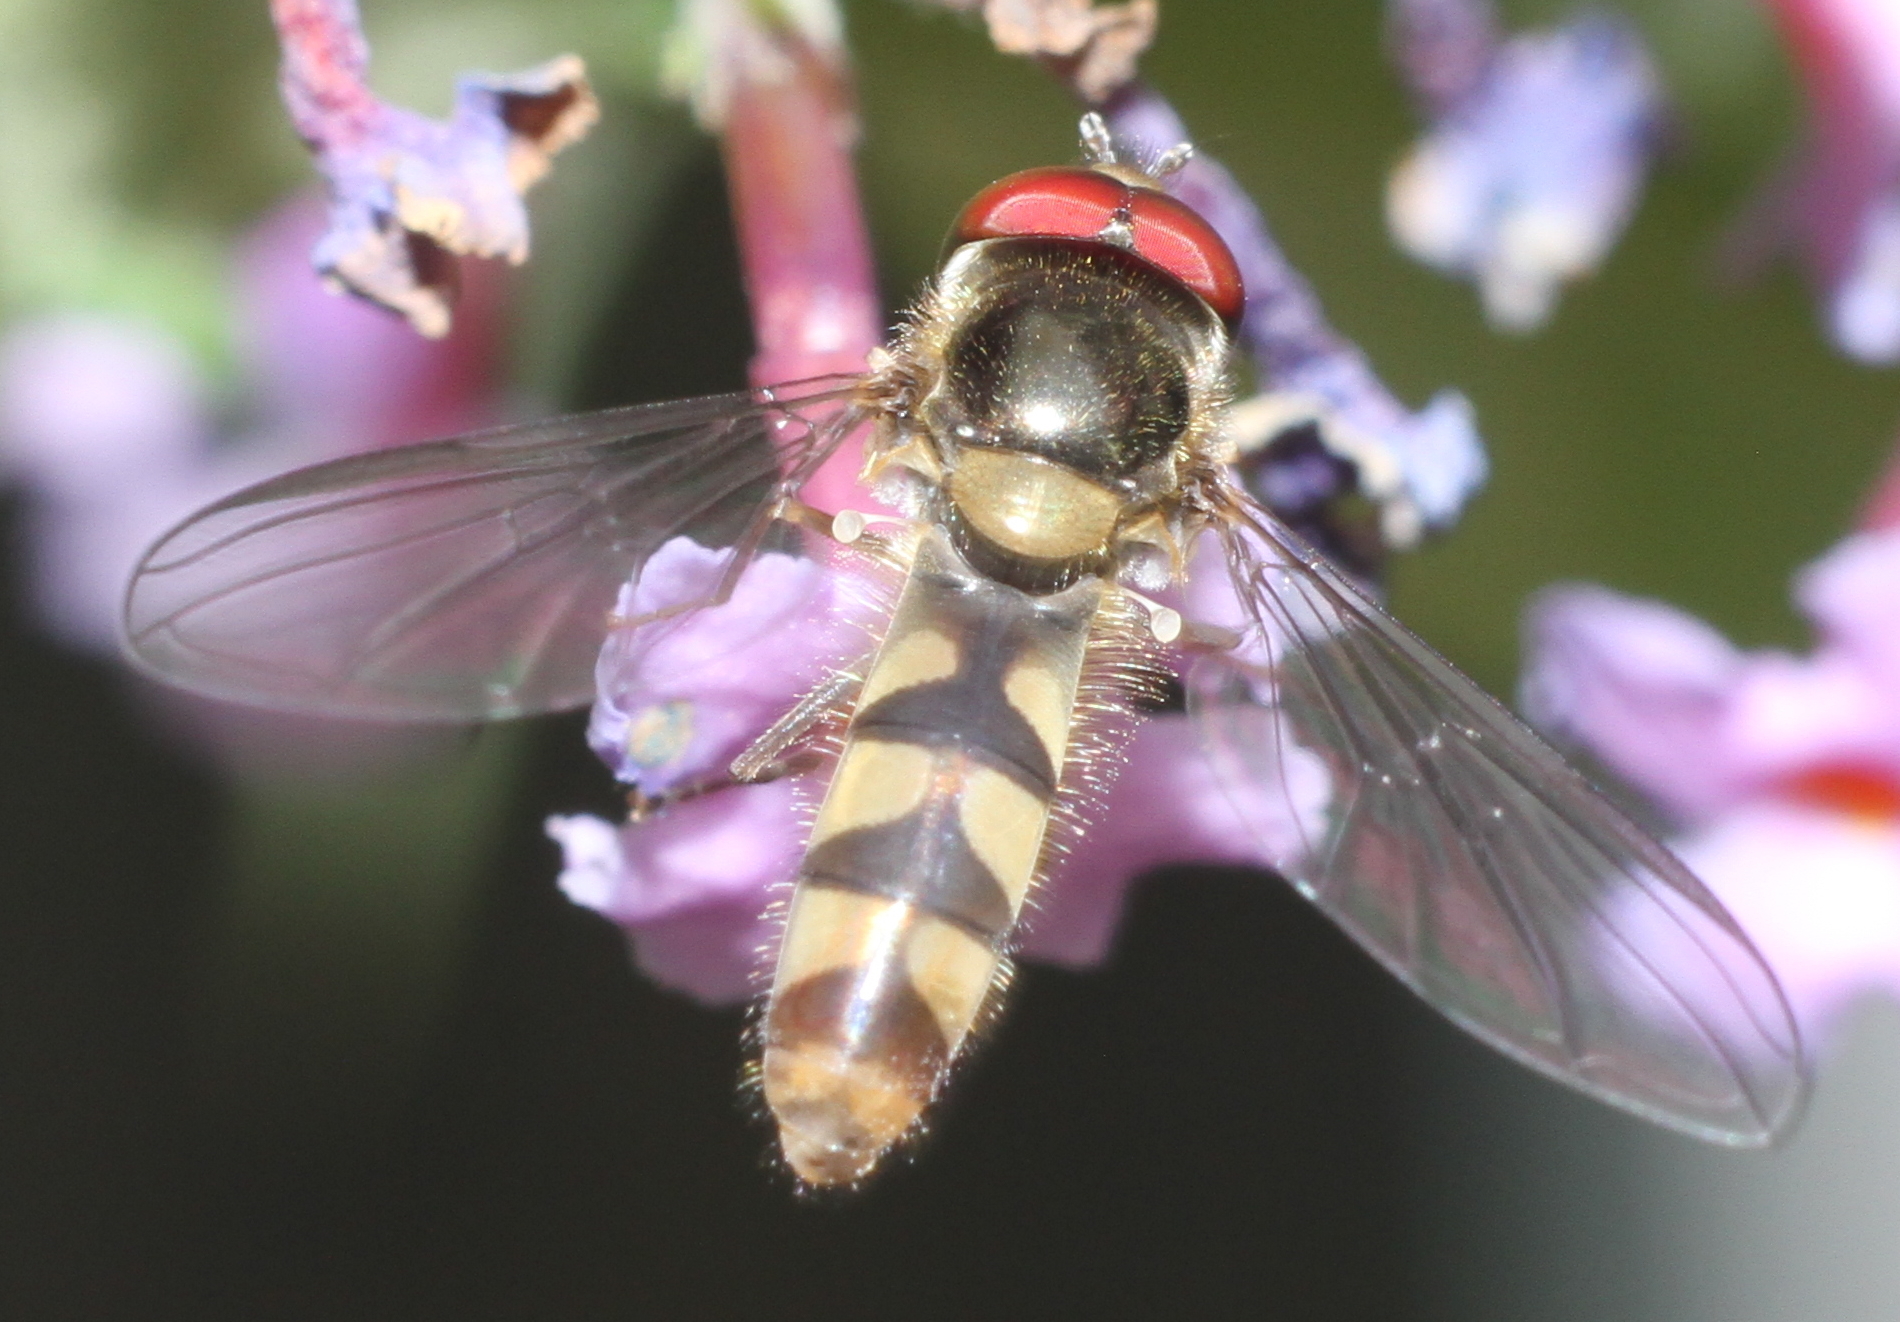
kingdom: Animalia
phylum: Arthropoda
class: Insecta
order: Diptera
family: Syrphidae
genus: Meliscaeva
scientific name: Meliscaeva auricollis
